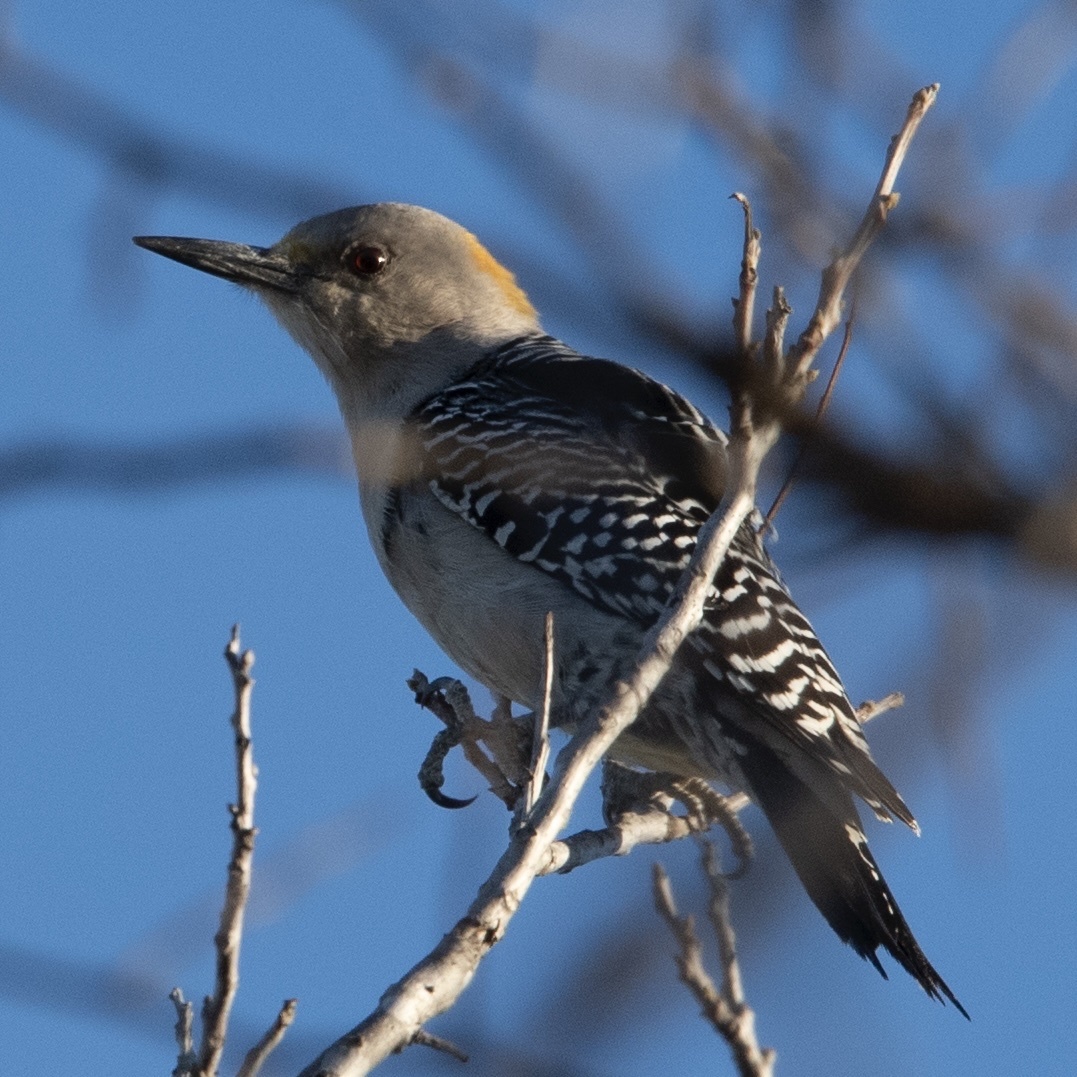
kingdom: Animalia
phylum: Chordata
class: Aves
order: Piciformes
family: Picidae
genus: Melanerpes
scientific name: Melanerpes aurifrons
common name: Golden-fronted woodpecker
